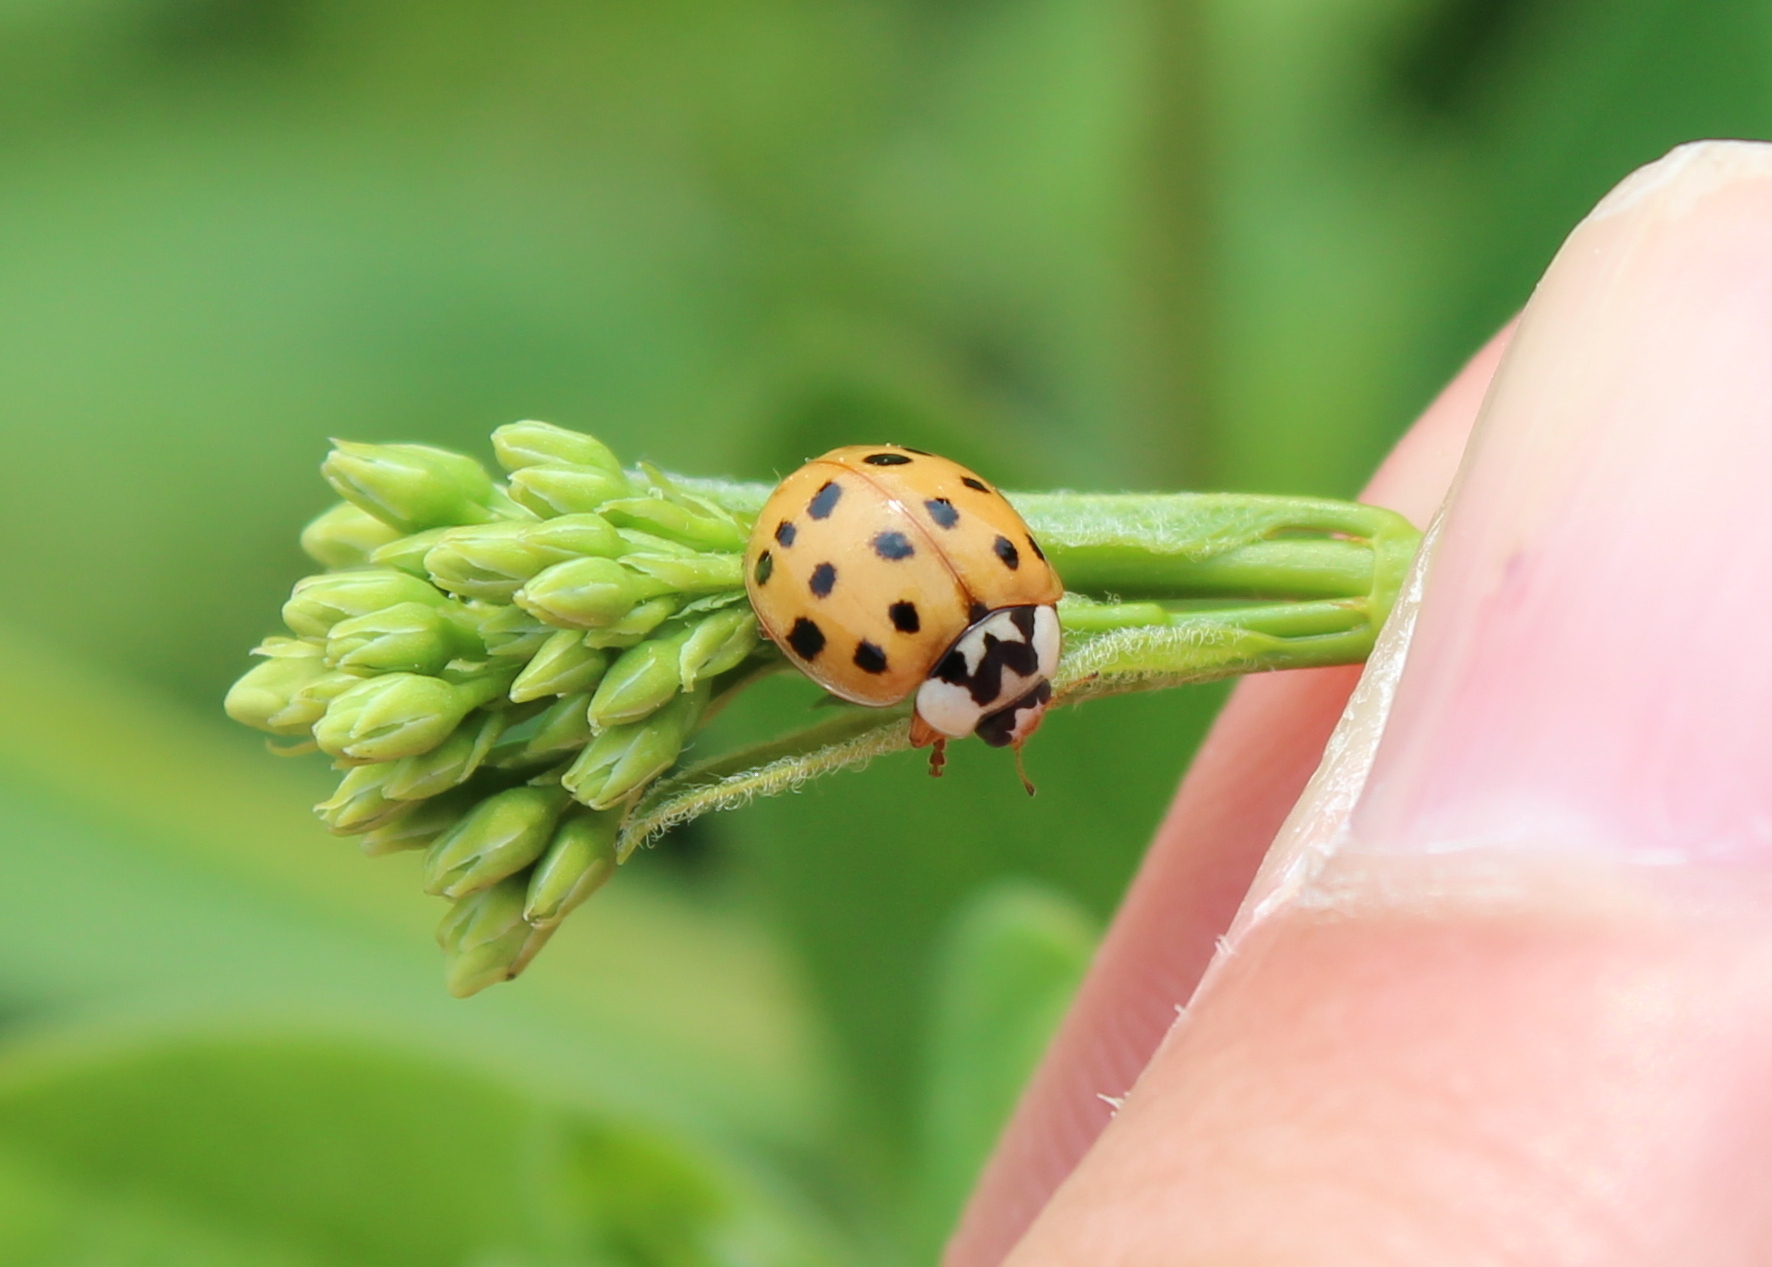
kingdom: Animalia
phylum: Arthropoda
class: Insecta
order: Coleoptera
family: Coccinellidae
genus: Harmonia
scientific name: Harmonia axyridis
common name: Harlequin ladybird
